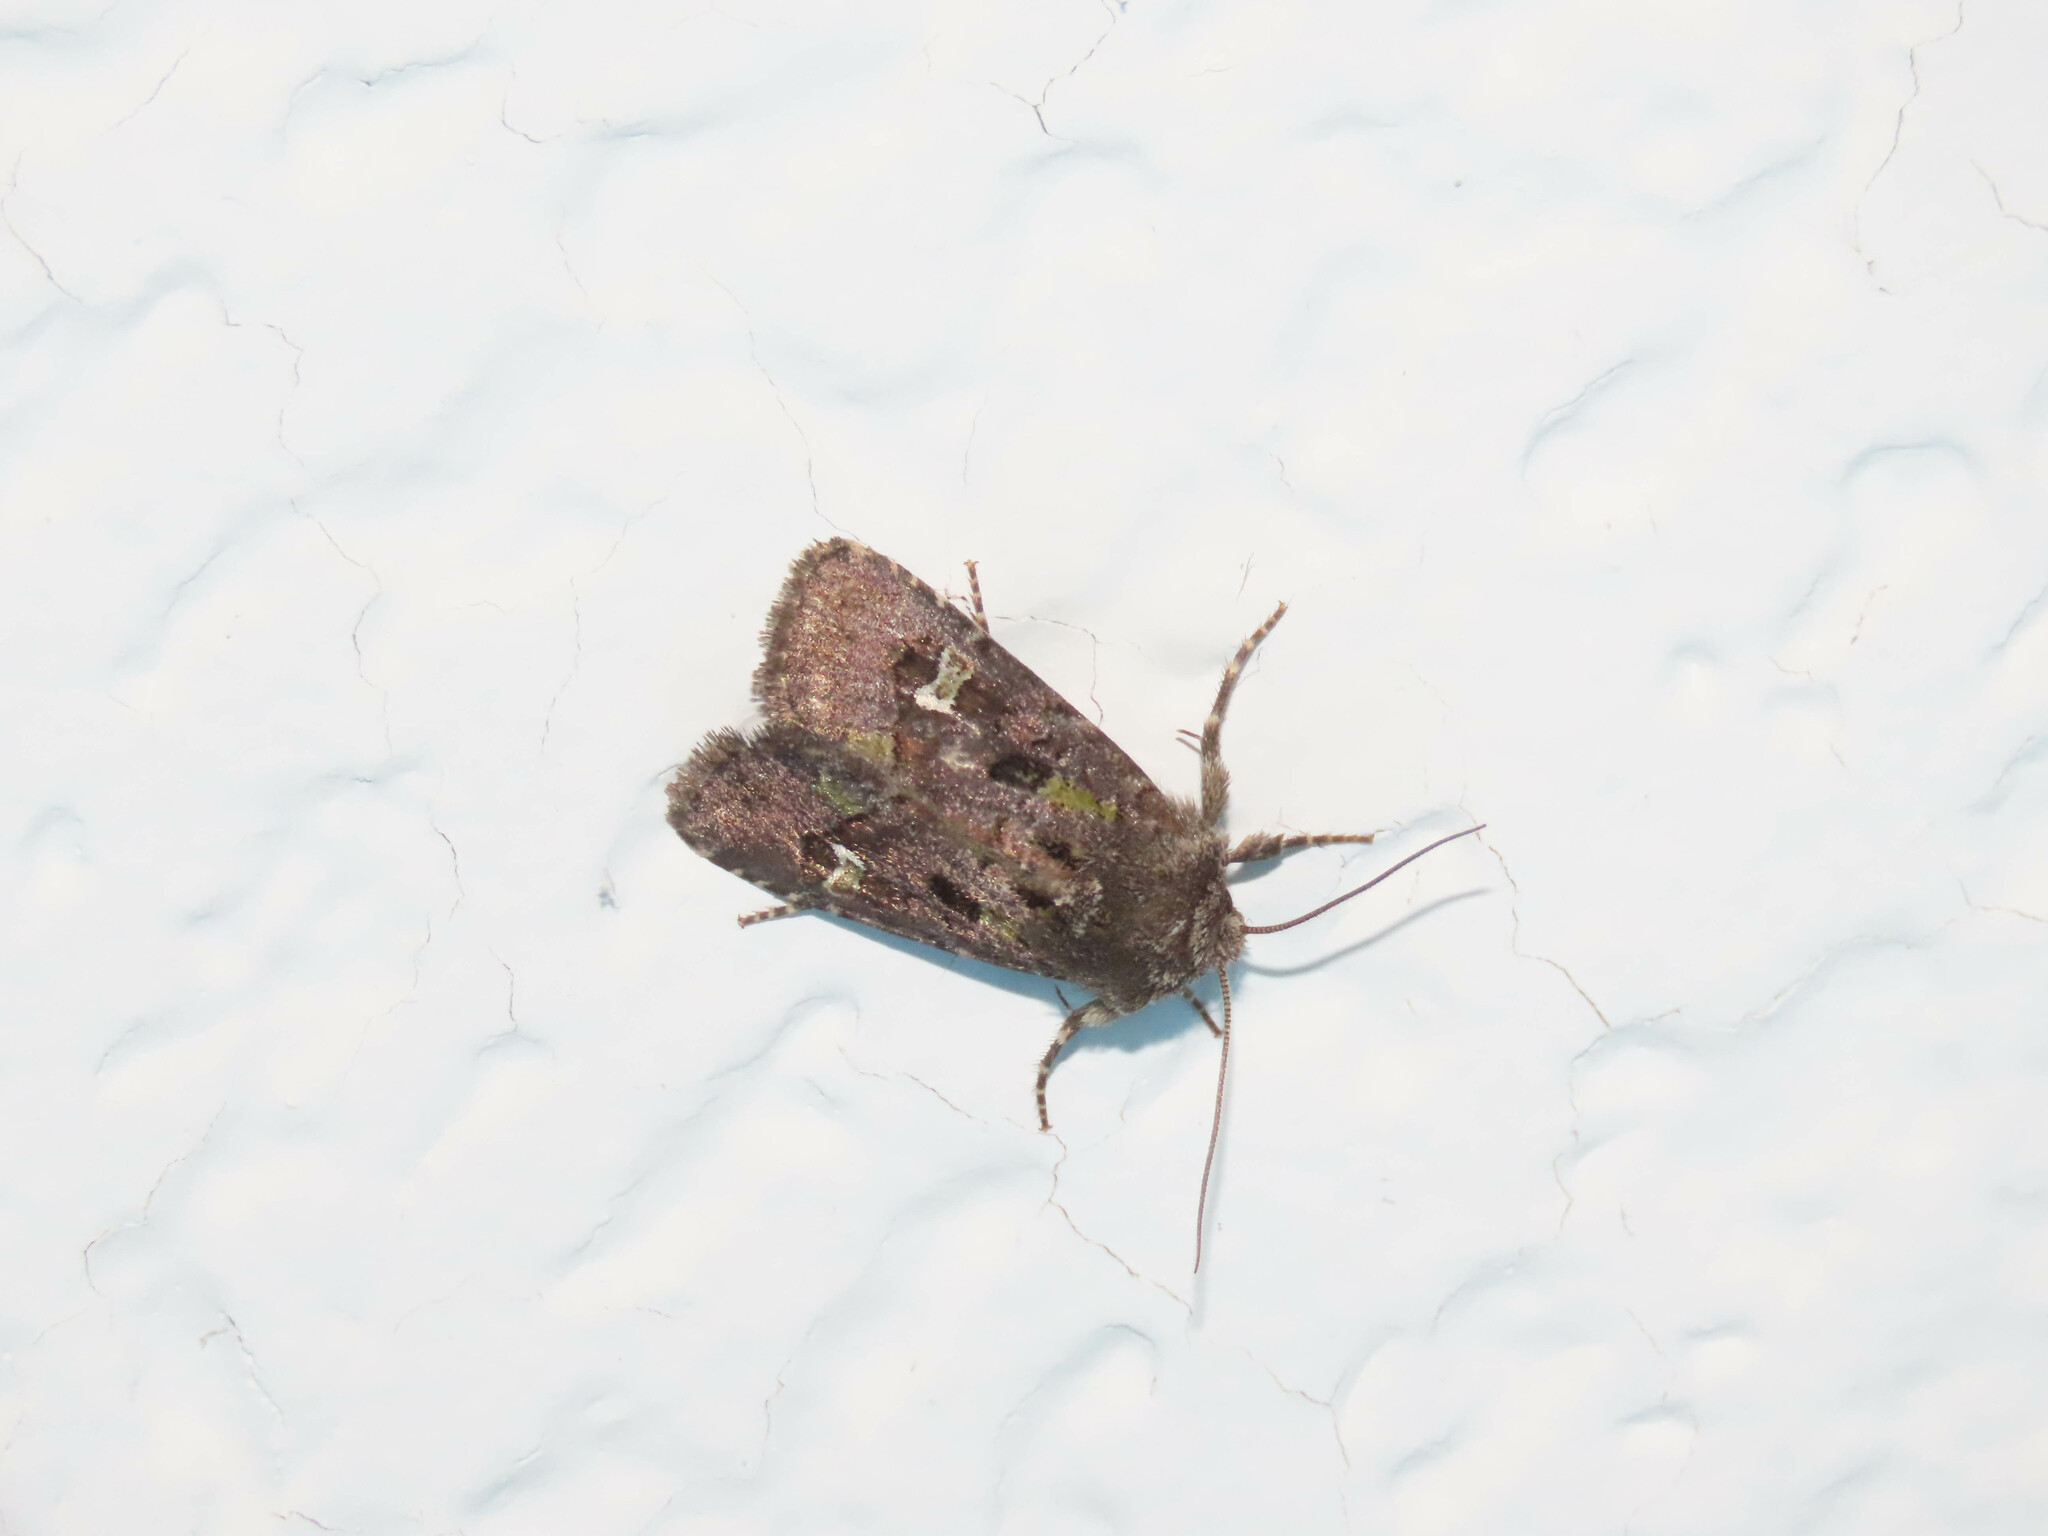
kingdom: Animalia
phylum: Arthropoda
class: Insecta
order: Lepidoptera
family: Noctuidae
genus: Lacinipolia
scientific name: Lacinipolia renigera
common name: Kidney-spotted minor
